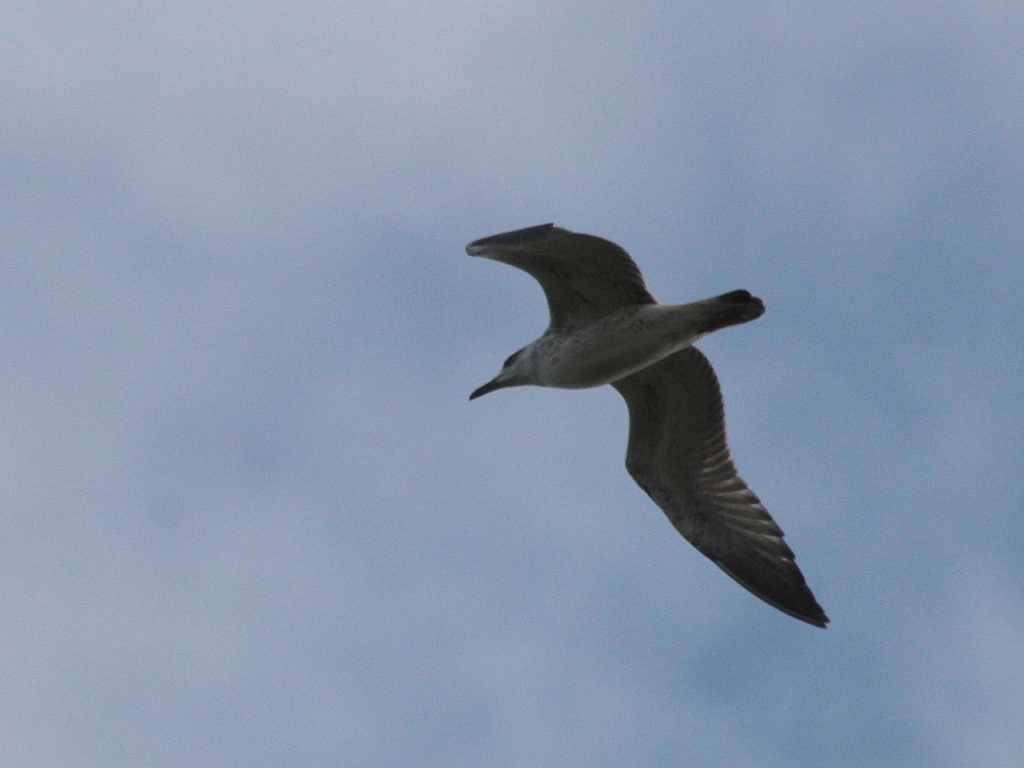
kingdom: Animalia
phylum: Chordata
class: Aves
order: Charadriiformes
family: Laridae
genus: Larus
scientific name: Larus fuscus
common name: Lesser black-backed gull
